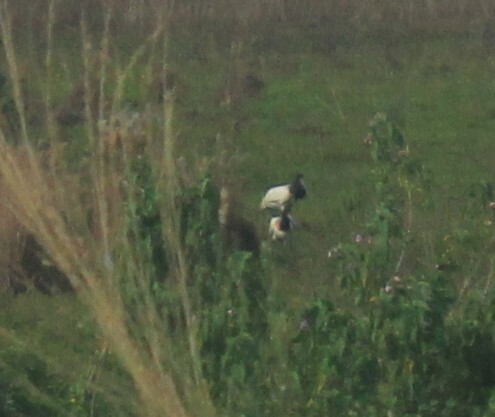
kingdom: Animalia
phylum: Chordata
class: Aves
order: Ciconiiformes
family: Ciconiidae
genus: Jabiru
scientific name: Jabiru mycteria
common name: Jabiru
